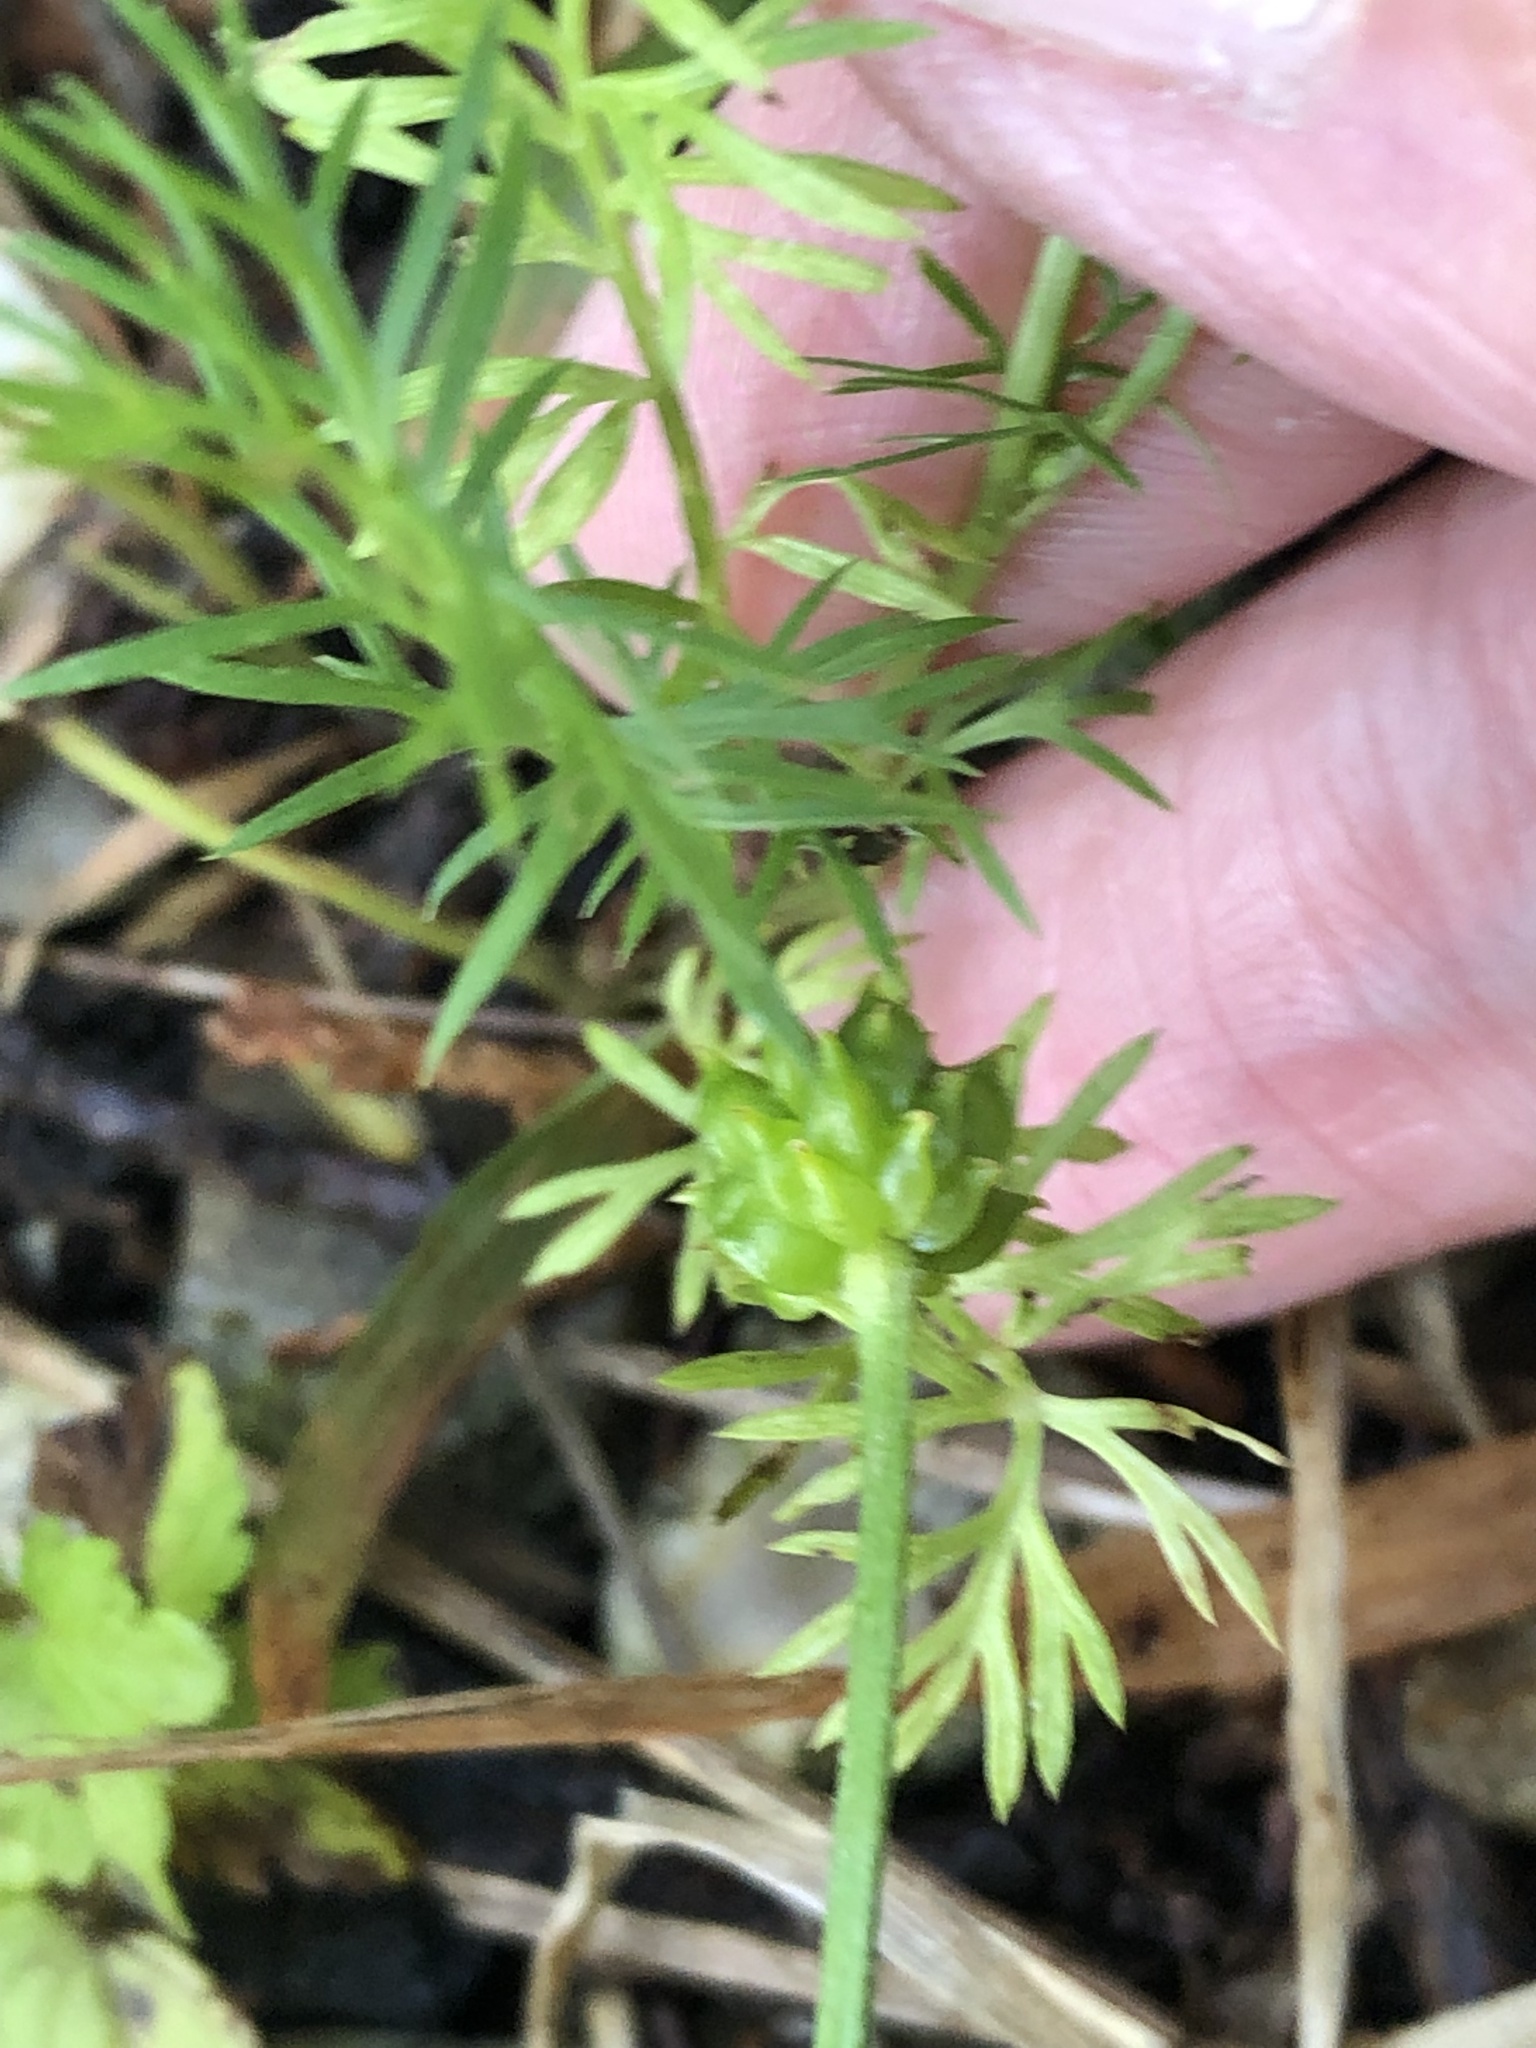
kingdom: Plantae
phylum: Tracheophyta
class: Magnoliopsida
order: Ranunculales
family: Ranunculaceae
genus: Nigella
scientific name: Nigella damascena
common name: Love-in-a-mist
